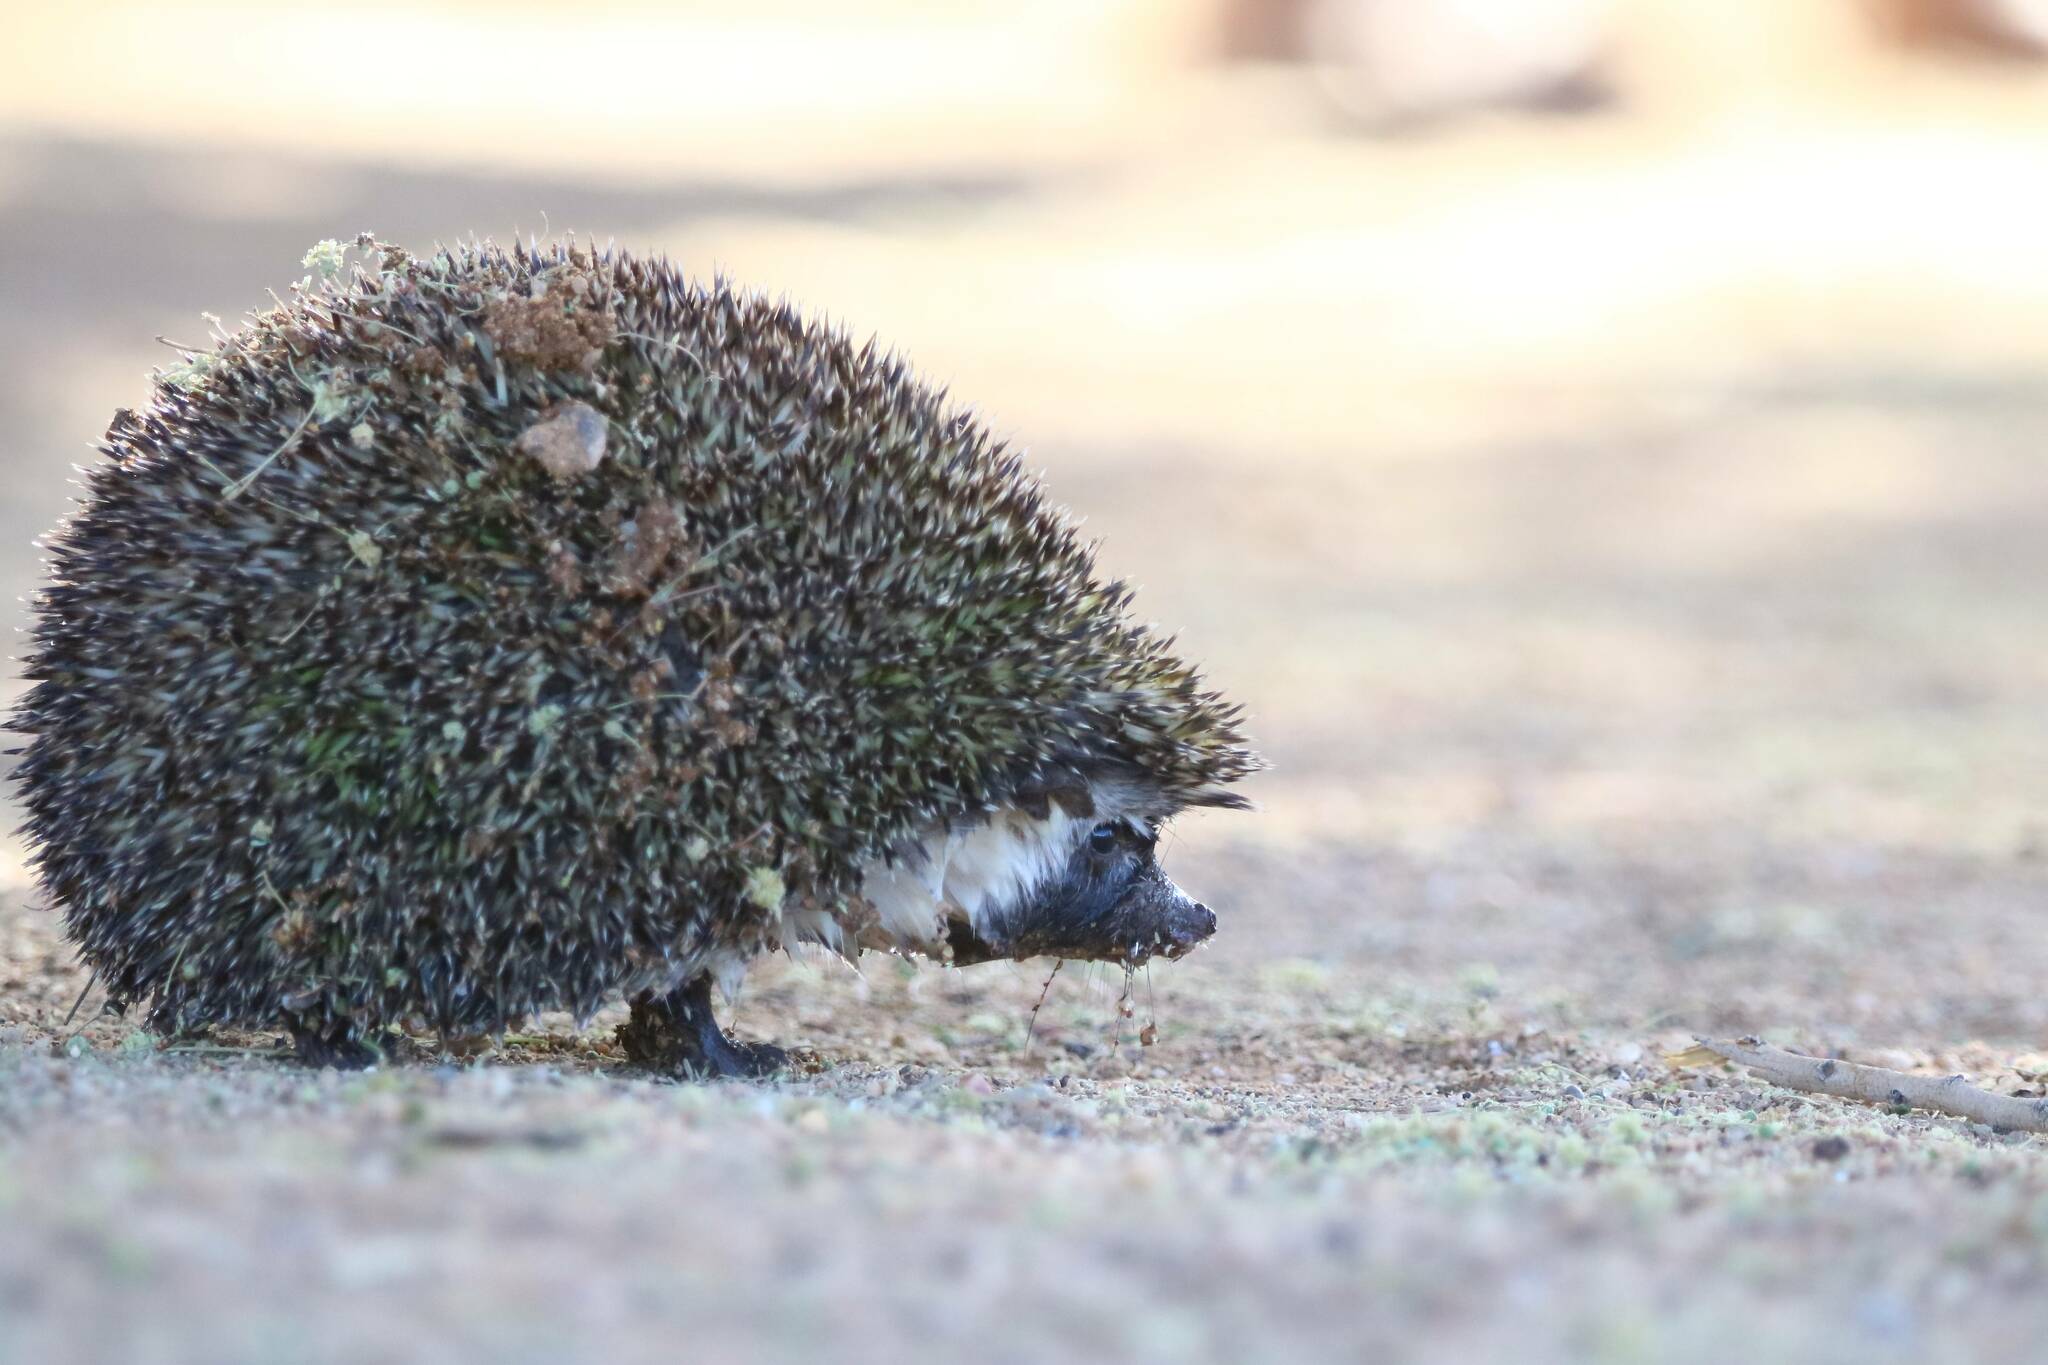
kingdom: Animalia
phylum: Chordata
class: Mammalia
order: Erinaceomorpha
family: Erinaceidae
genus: Paraechinus
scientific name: Paraechinus aethiopicus
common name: Desert hedgehog
